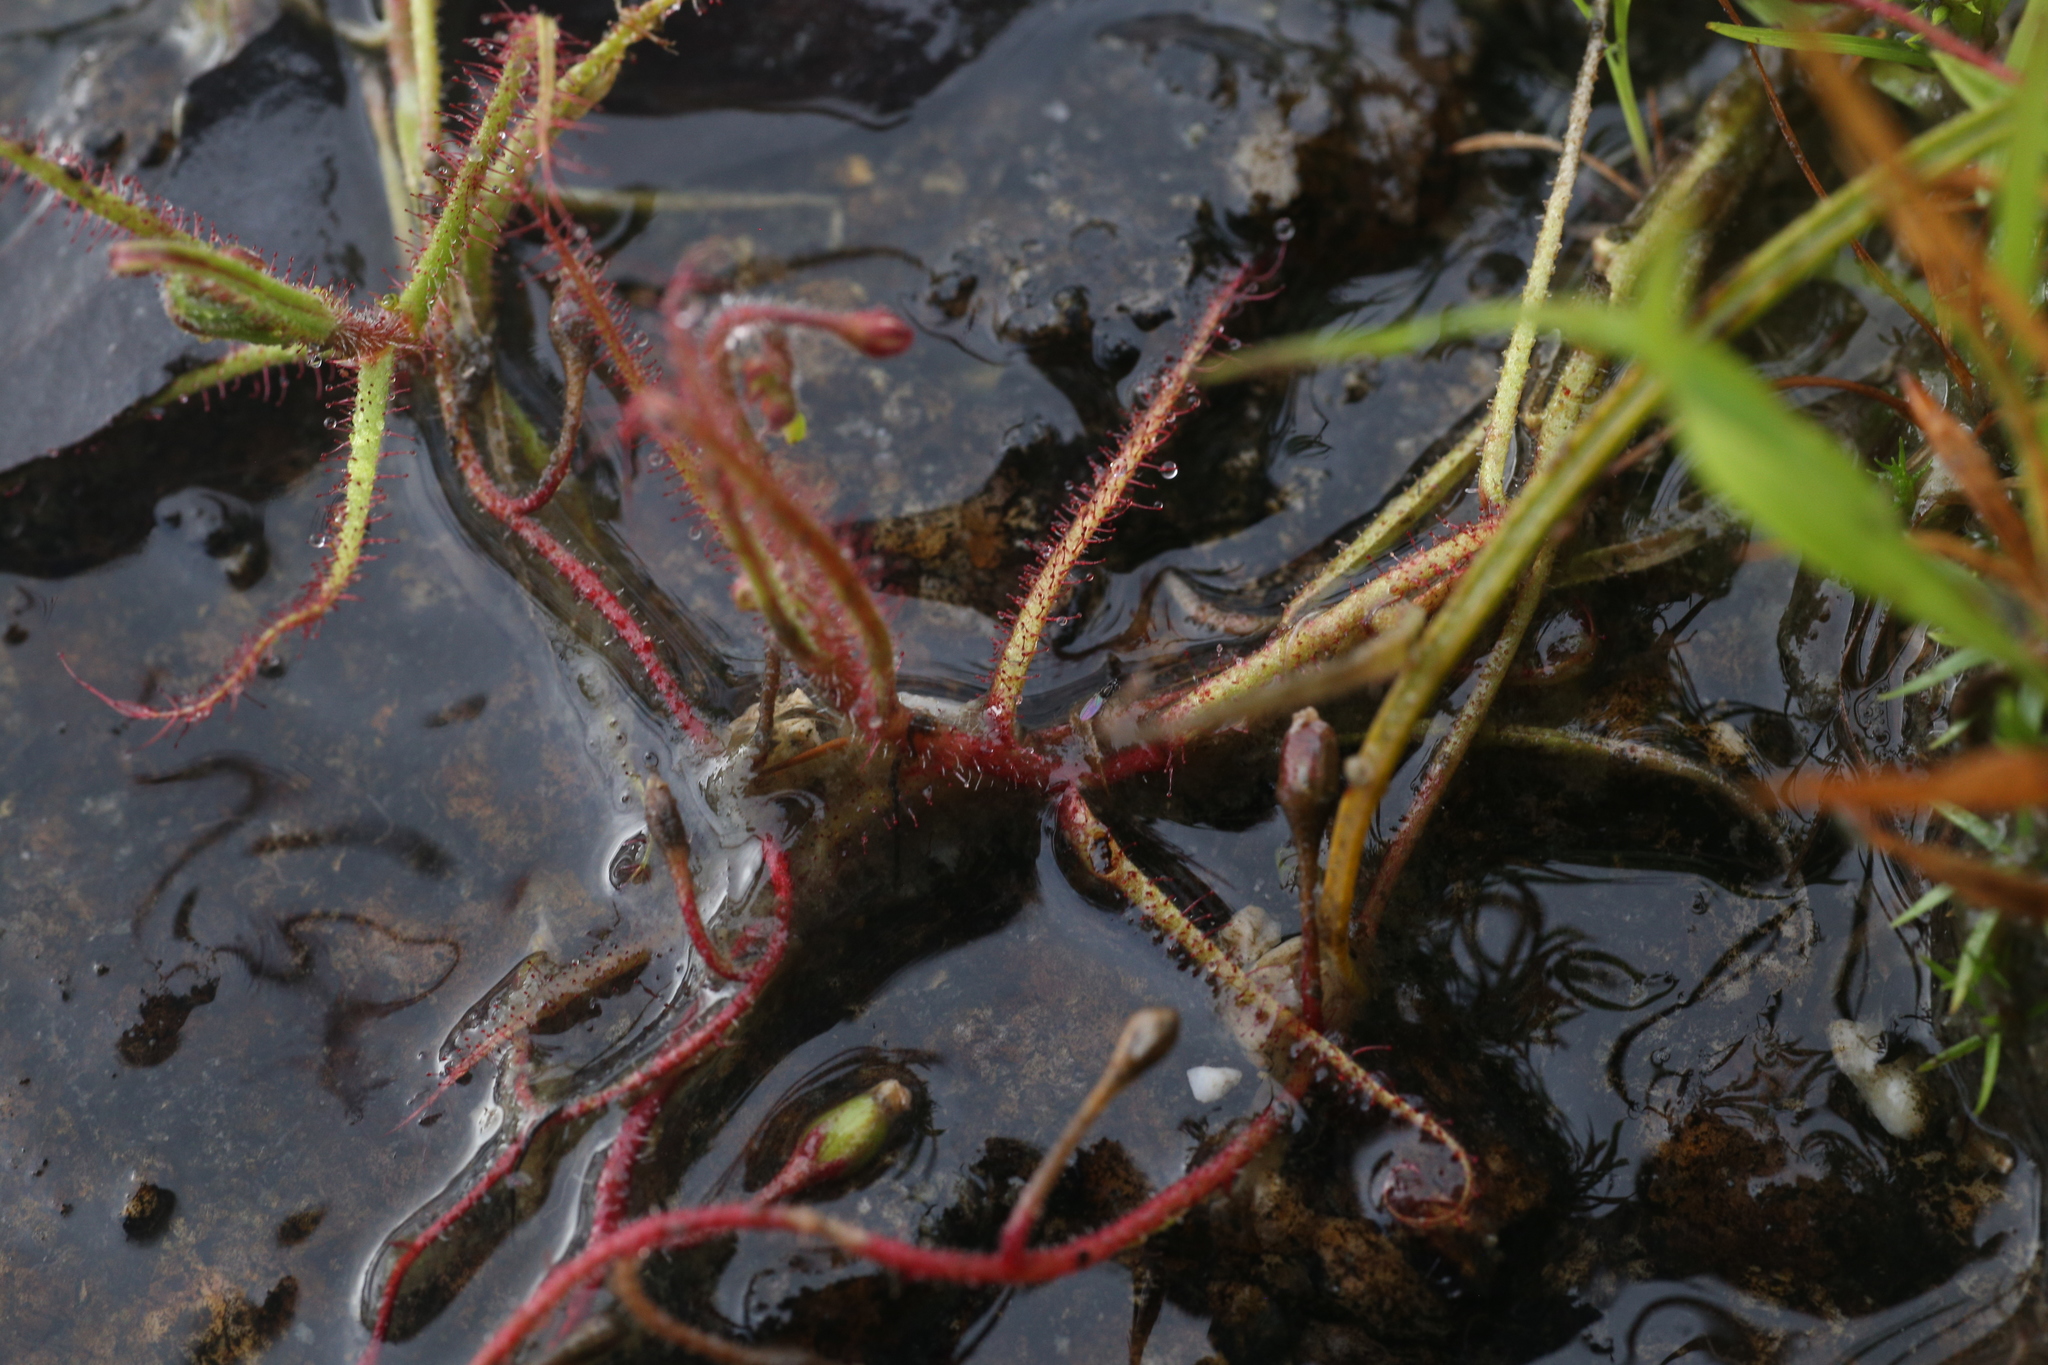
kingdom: Plantae
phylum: Tracheophyta
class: Magnoliopsida
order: Caryophyllales
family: Droseraceae
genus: Drosera
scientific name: Drosera aquatica
